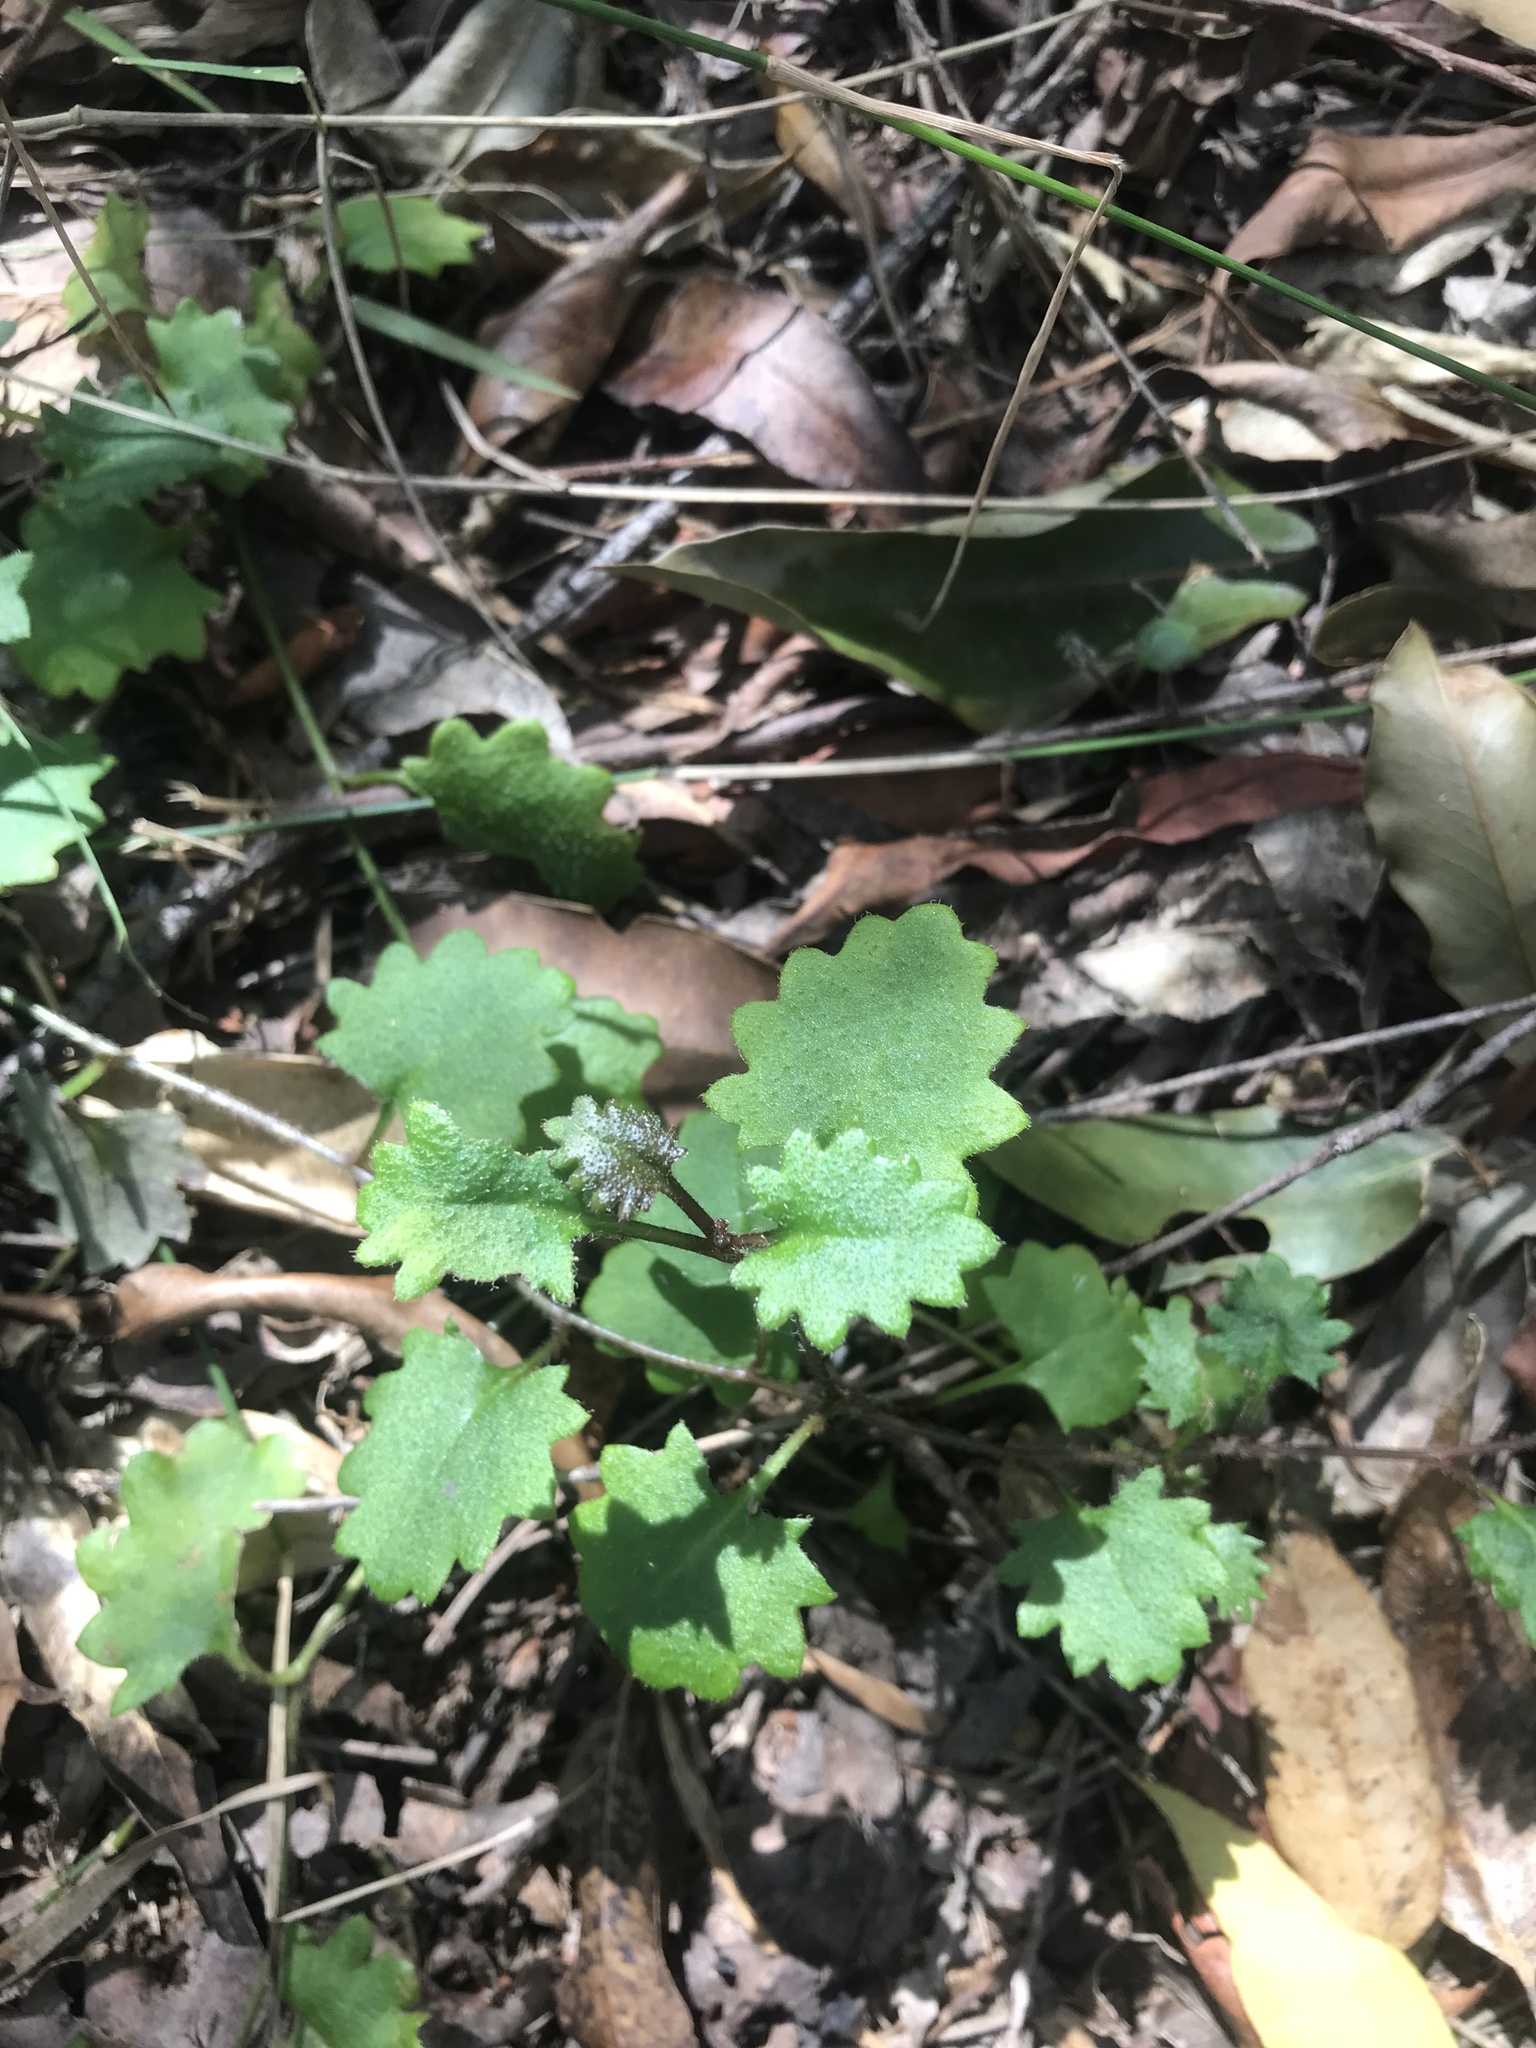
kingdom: Plantae
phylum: Tracheophyta
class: Magnoliopsida
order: Asterales
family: Goodeniaceae
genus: Goodenia
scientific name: Goodenia rotundifolia
